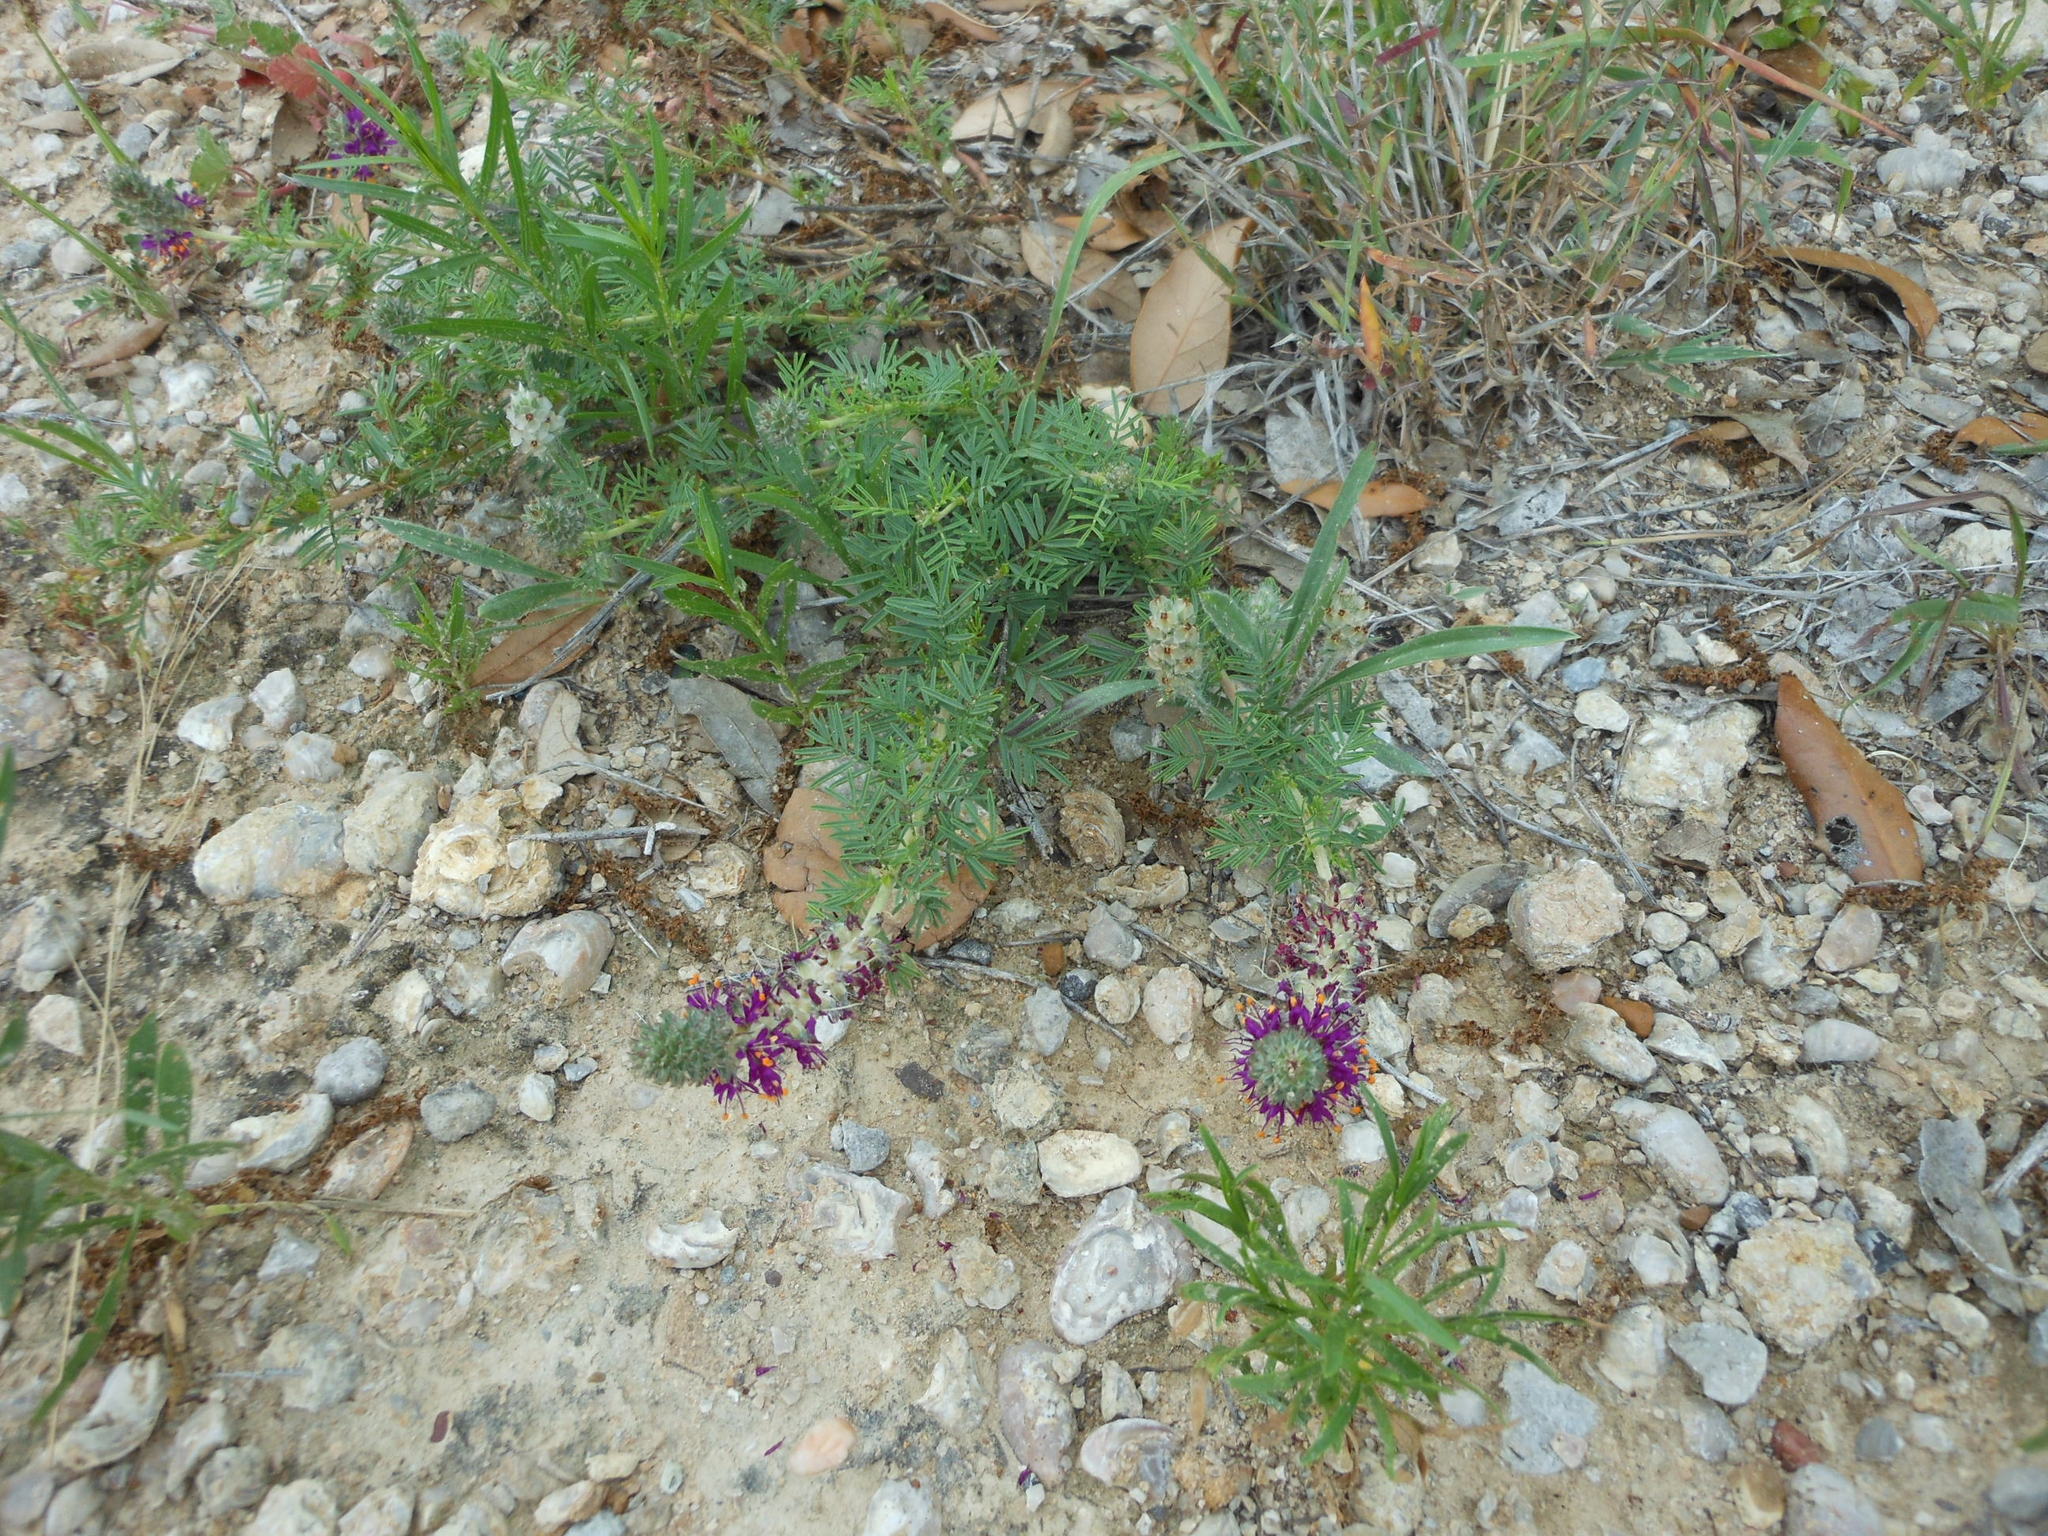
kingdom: Plantae
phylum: Tracheophyta
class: Magnoliopsida
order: Fabales
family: Fabaceae
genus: Dalea
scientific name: Dalea reverchonii
